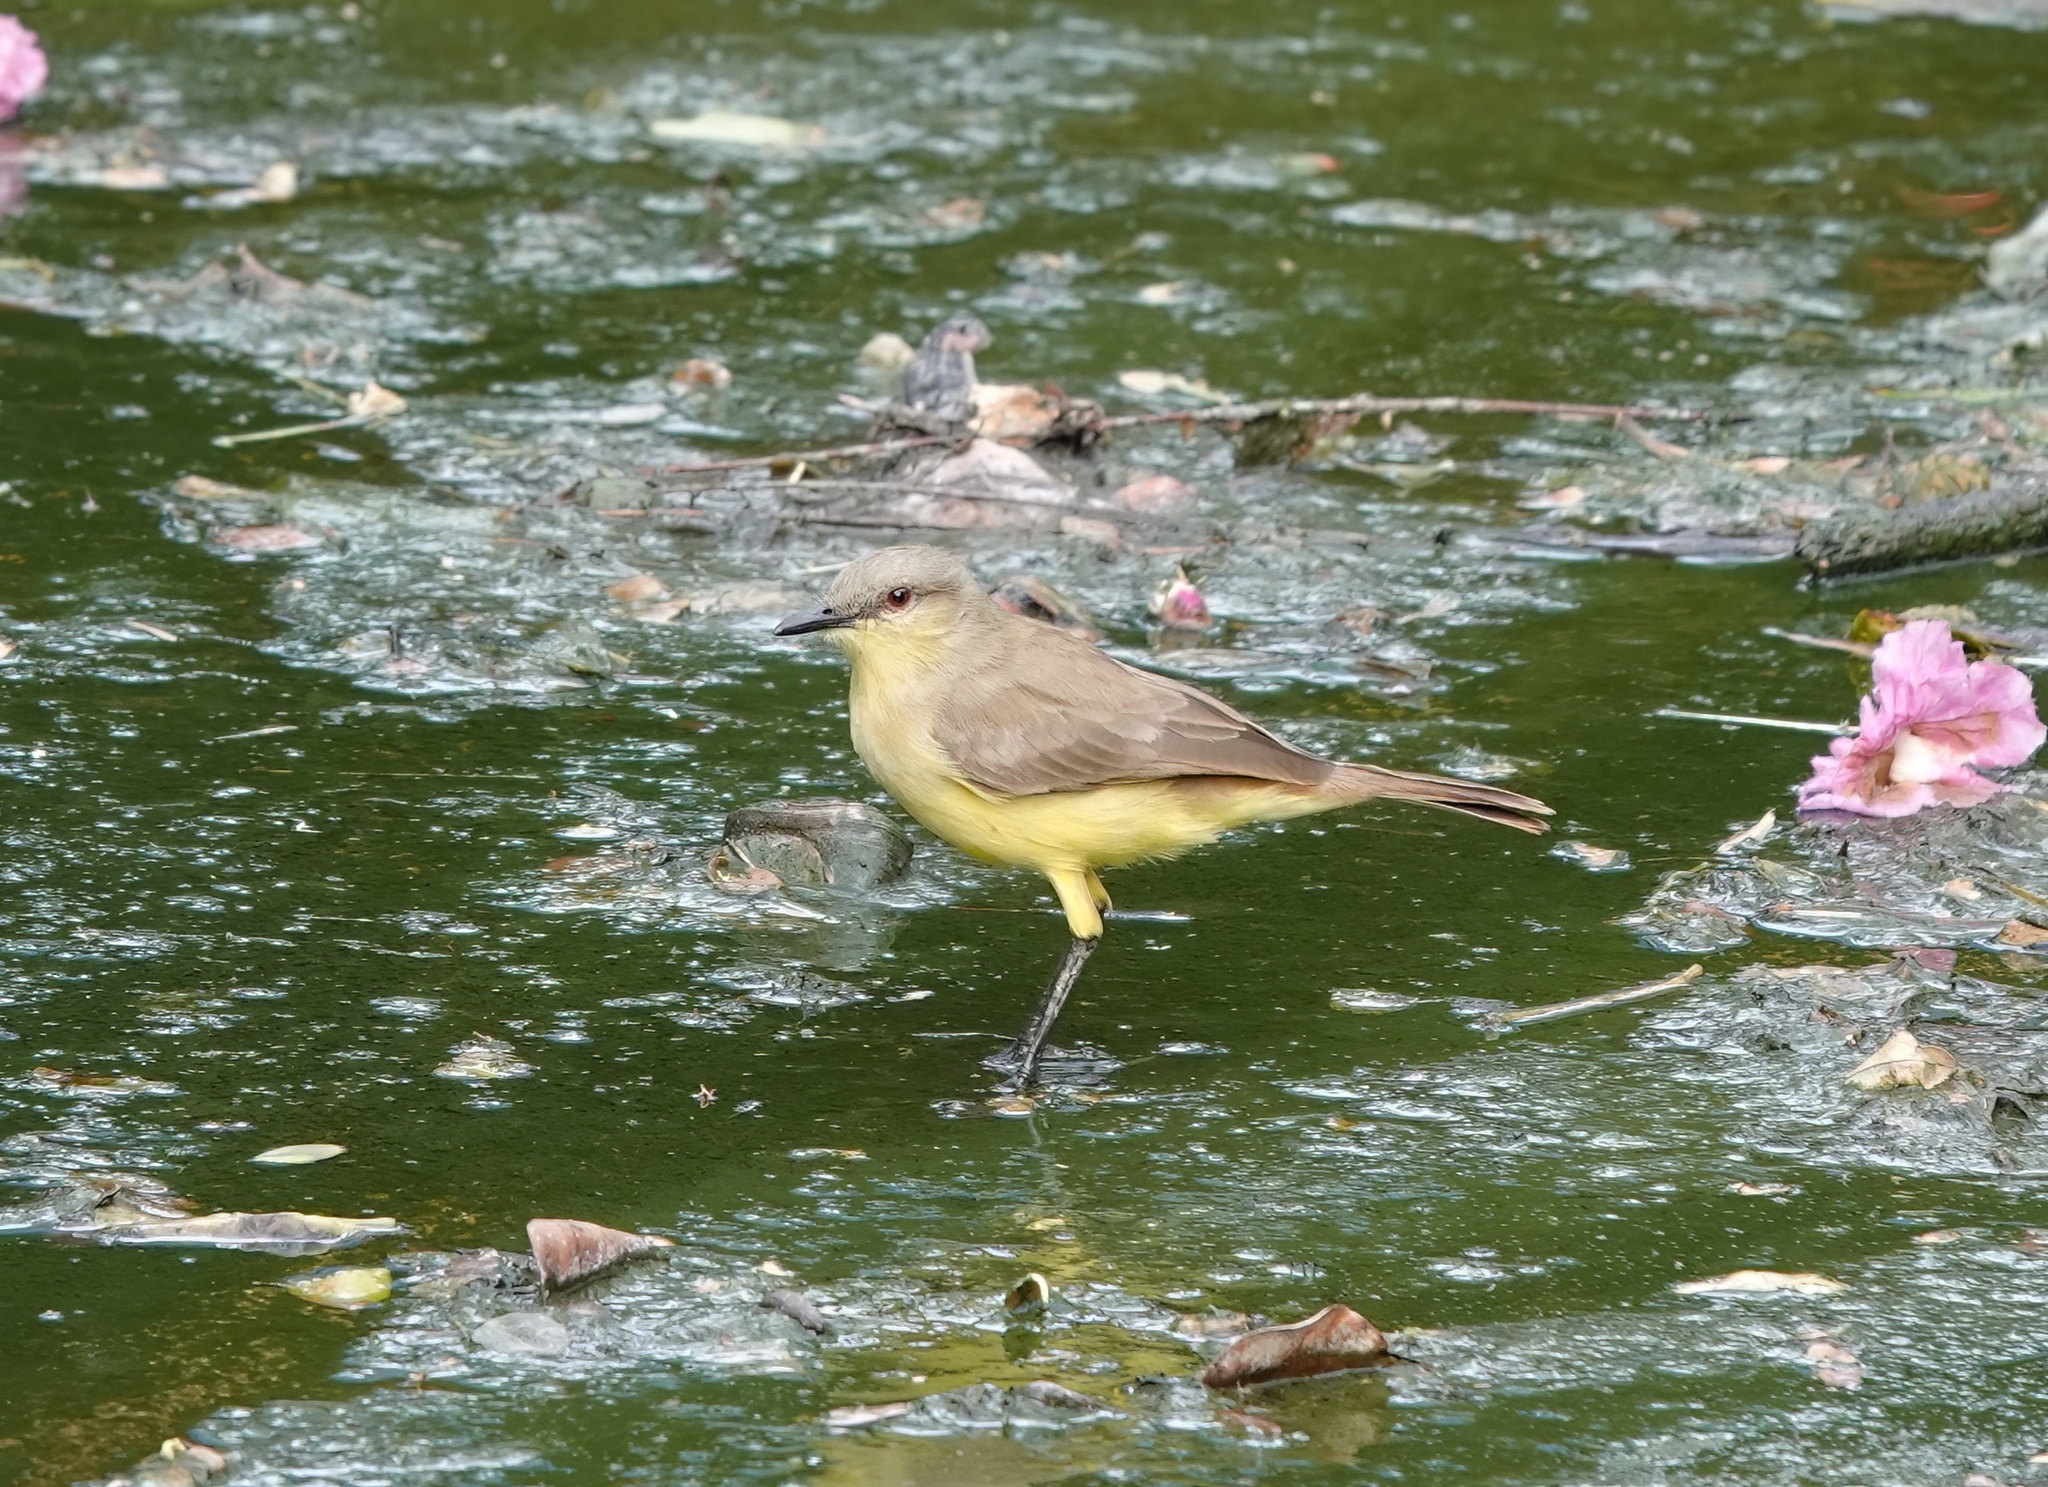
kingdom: Animalia
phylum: Chordata
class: Aves
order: Passeriformes
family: Tyrannidae
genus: Machetornis
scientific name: Machetornis rixosa
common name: Cattle tyrant
